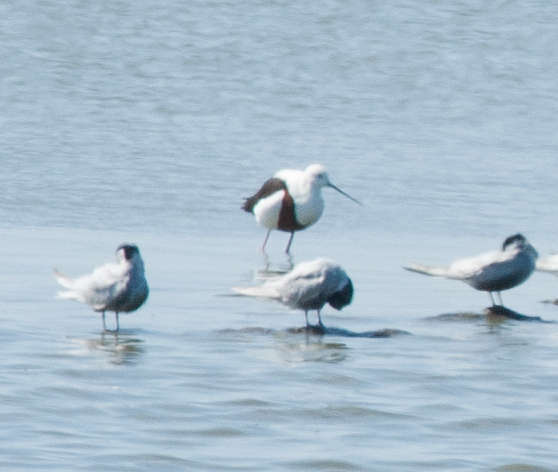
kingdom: Animalia
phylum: Chordata
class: Aves
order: Charadriiformes
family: Recurvirostridae
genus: Cladorhynchus
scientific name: Cladorhynchus leucocephalus
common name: Banded stilt
